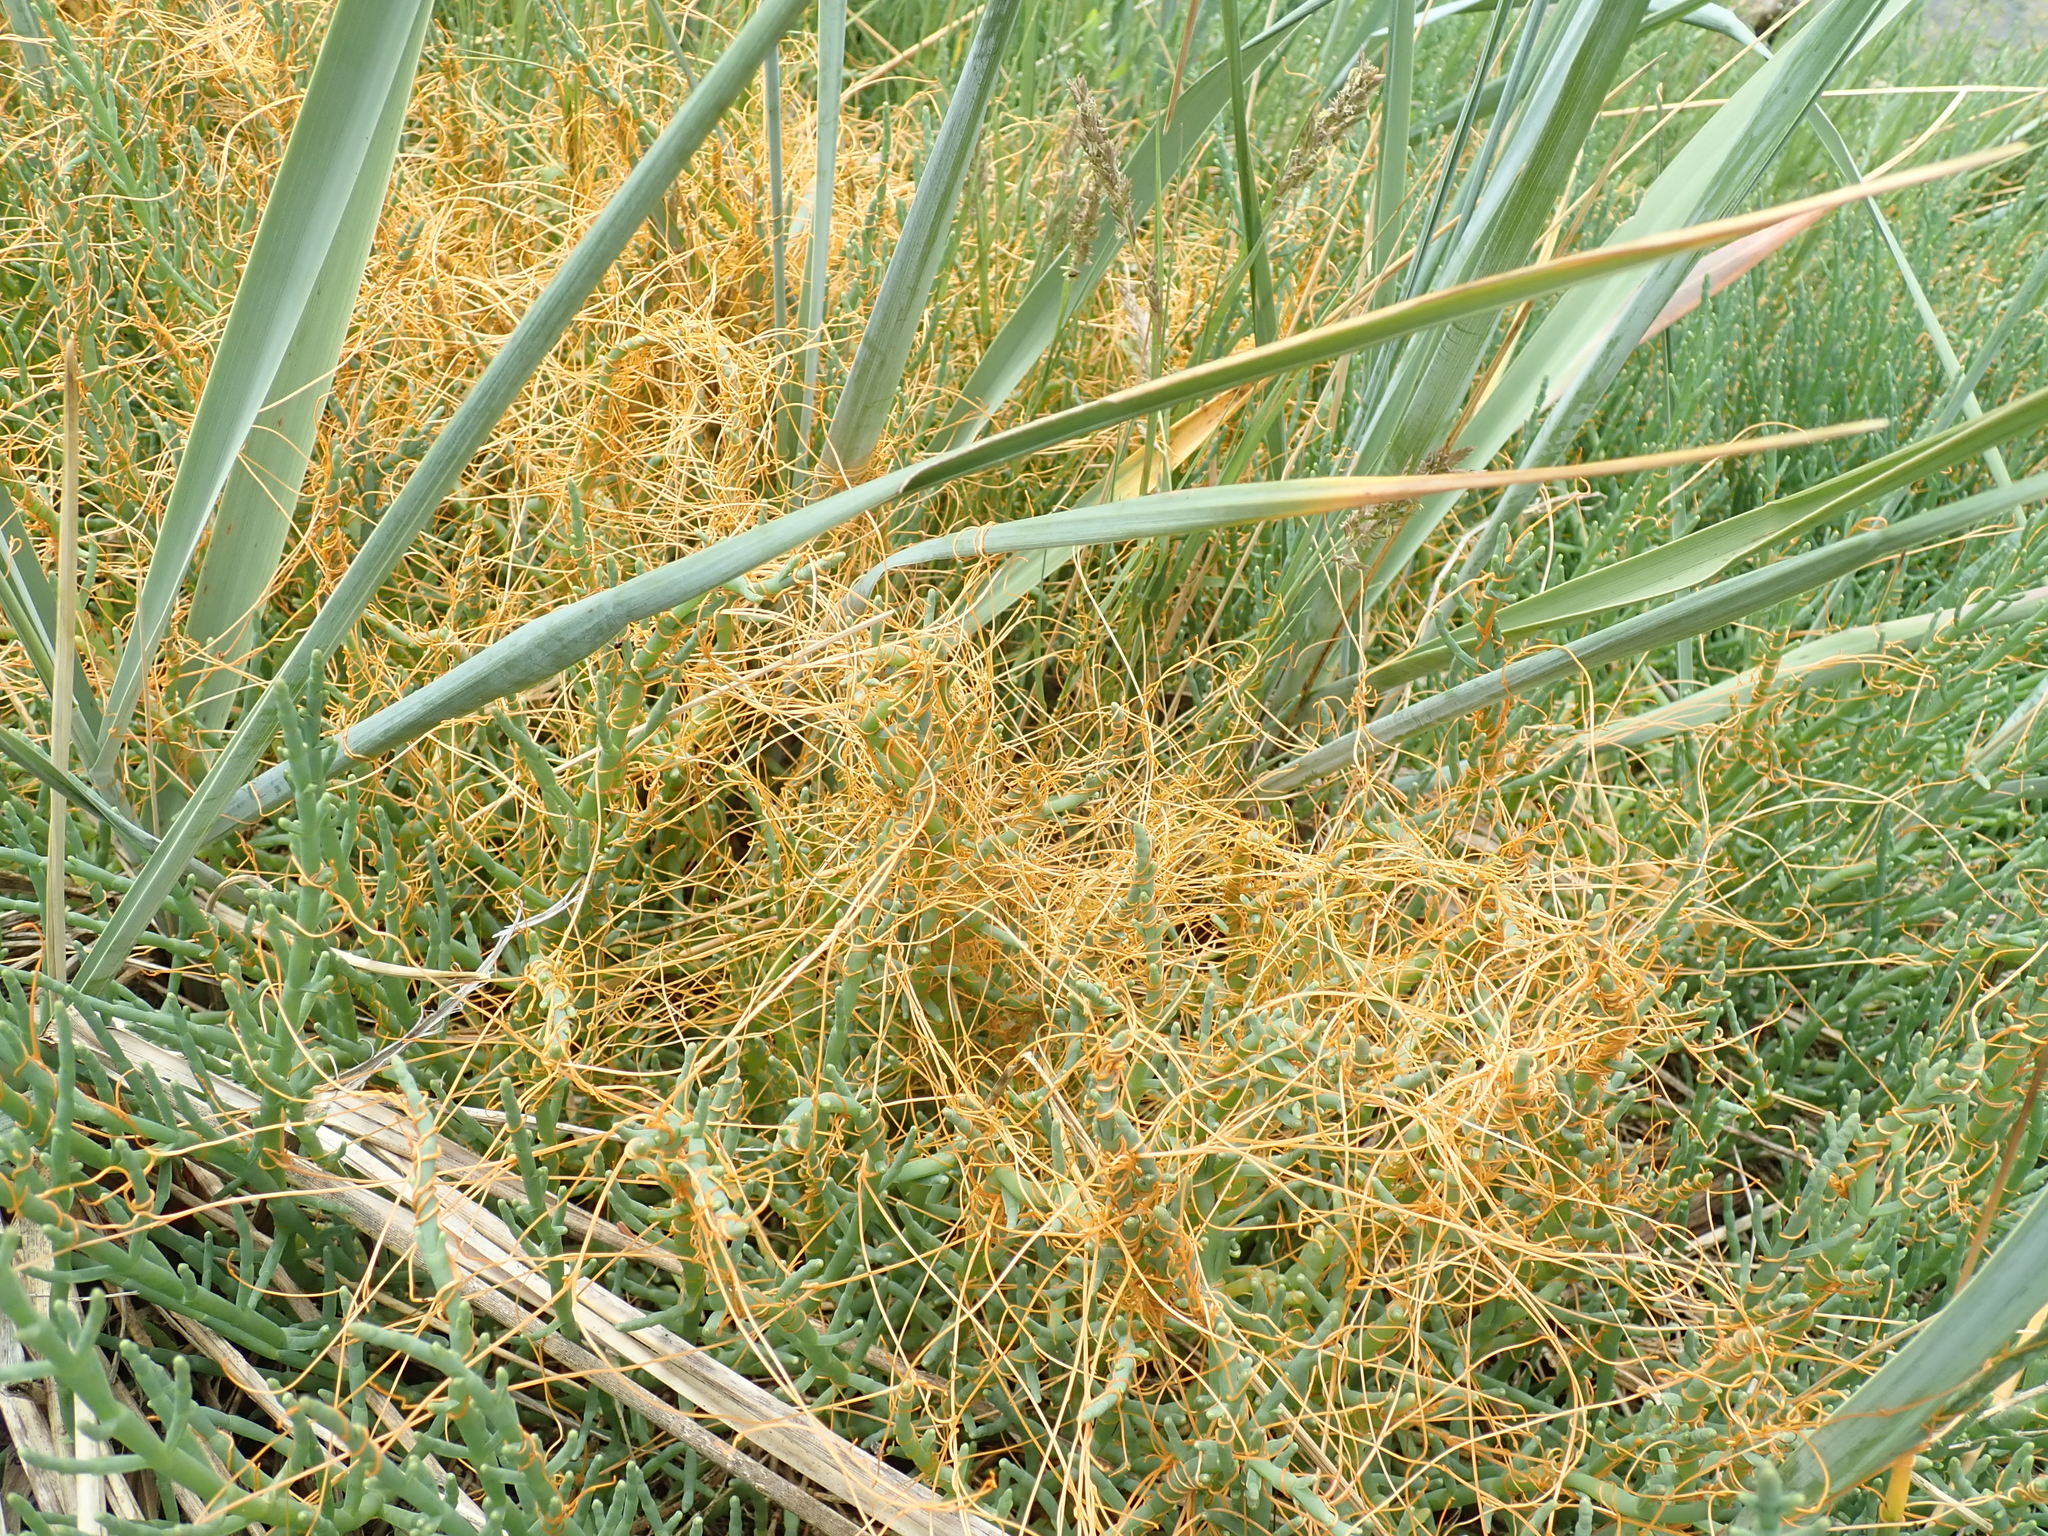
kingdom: Plantae
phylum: Tracheophyta
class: Magnoliopsida
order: Solanales
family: Convolvulaceae
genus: Cuscuta
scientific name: Cuscuta pacifica
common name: Large saltmarsh dodder
